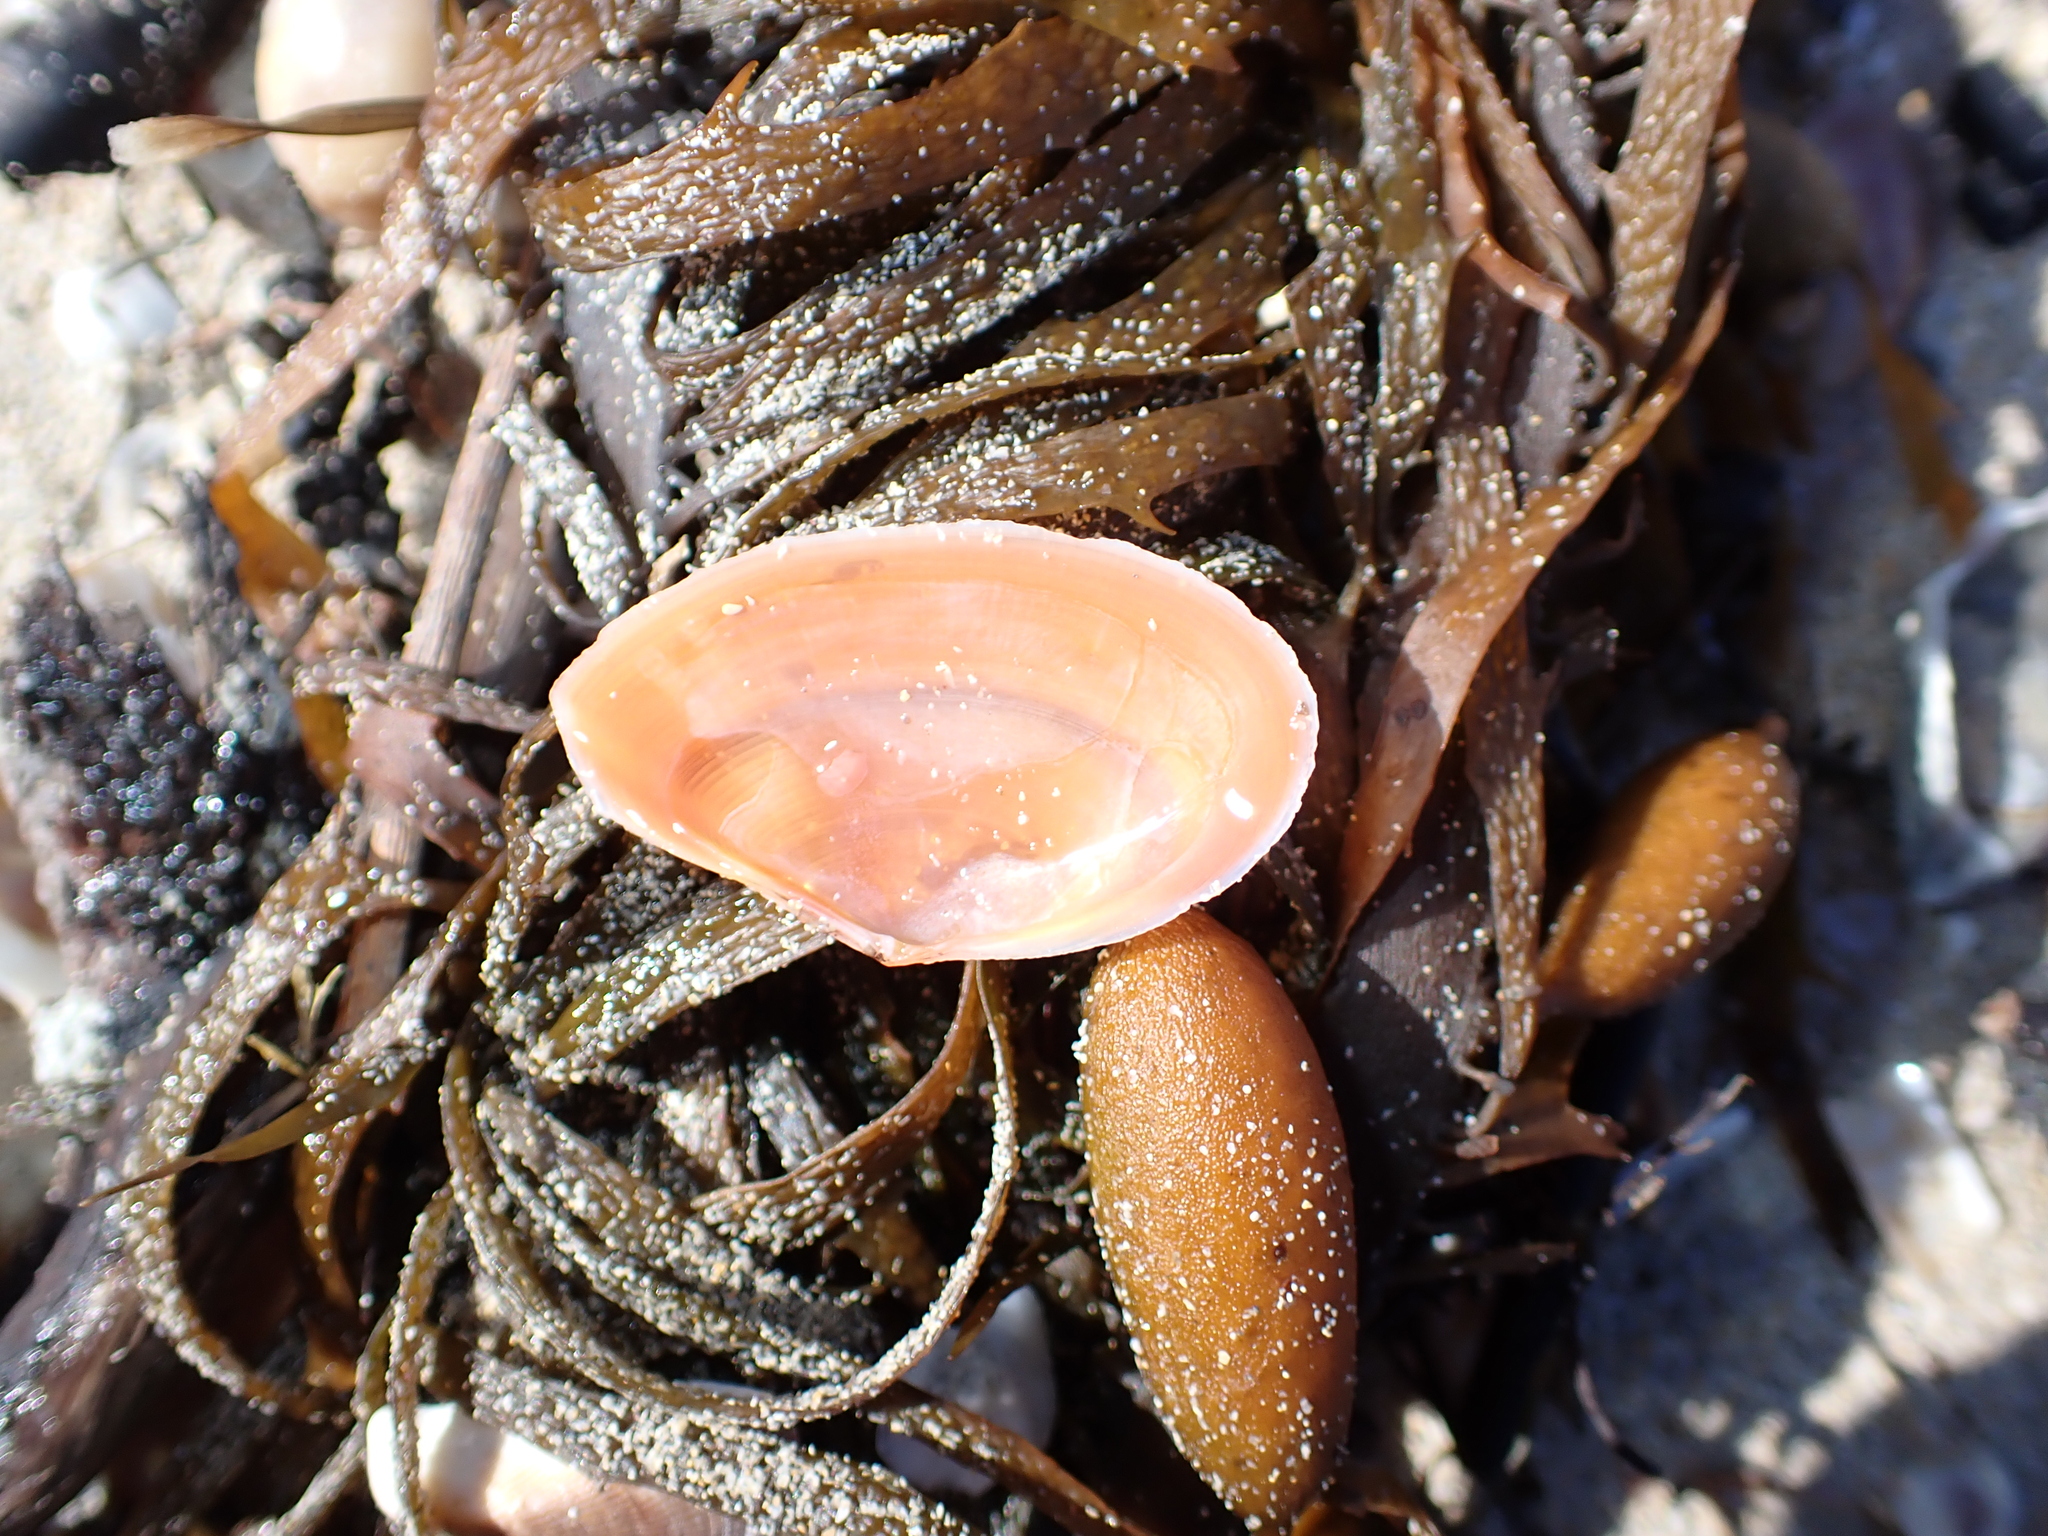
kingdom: Animalia
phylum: Mollusca
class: Bivalvia
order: Cardiida
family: Tellinidae
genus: Tellinota
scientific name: Tellinota albinella
